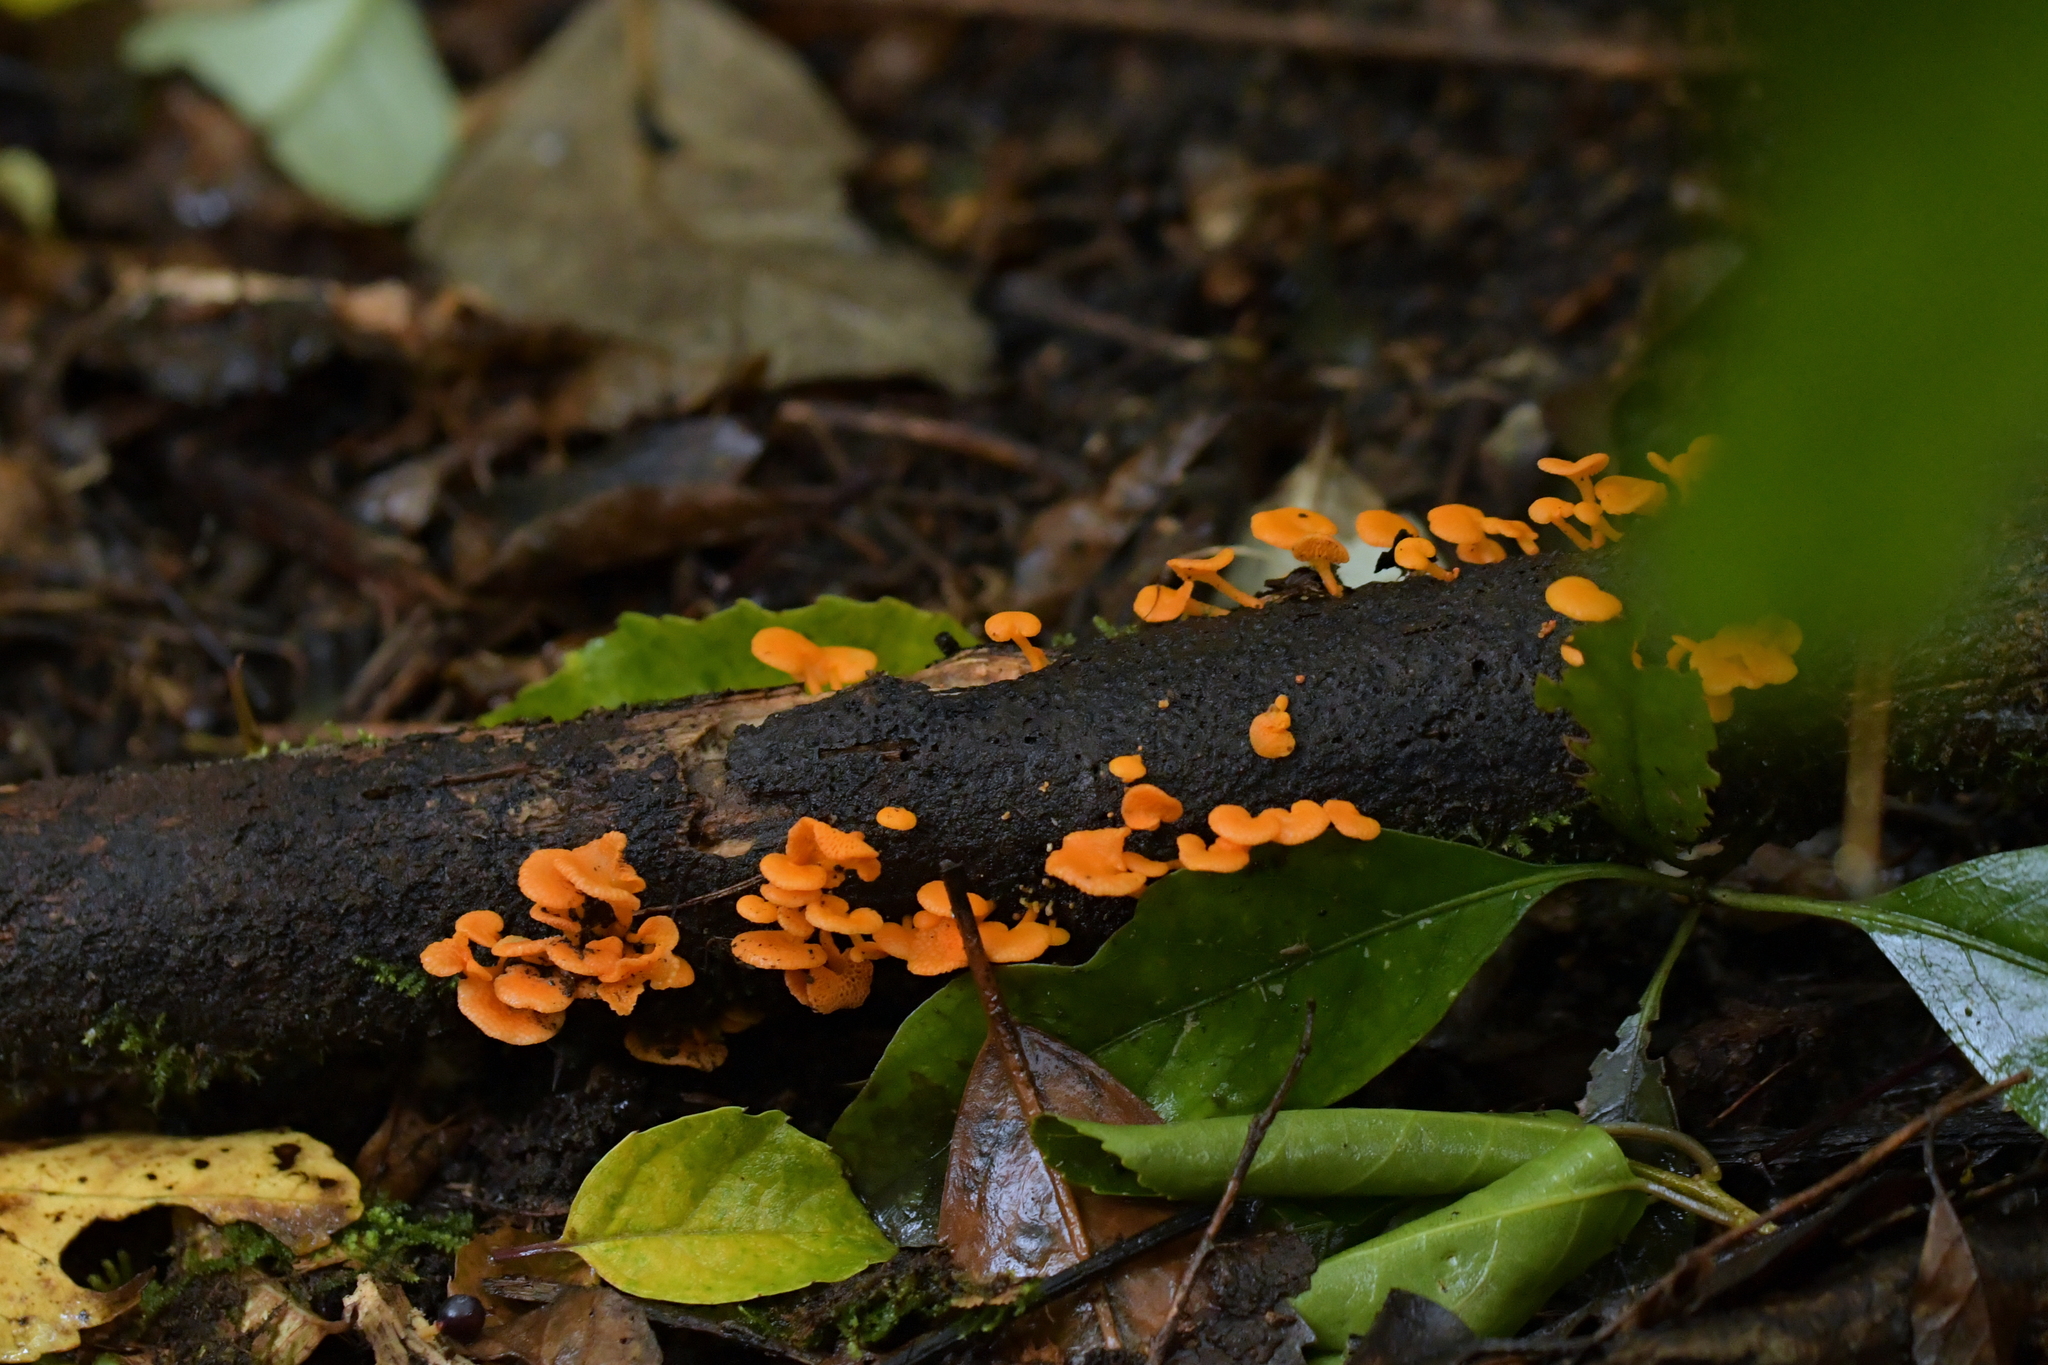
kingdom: Fungi
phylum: Basidiomycota
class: Agaricomycetes
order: Agaricales
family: Mycenaceae
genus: Favolaschia
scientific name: Favolaschia claudopus
